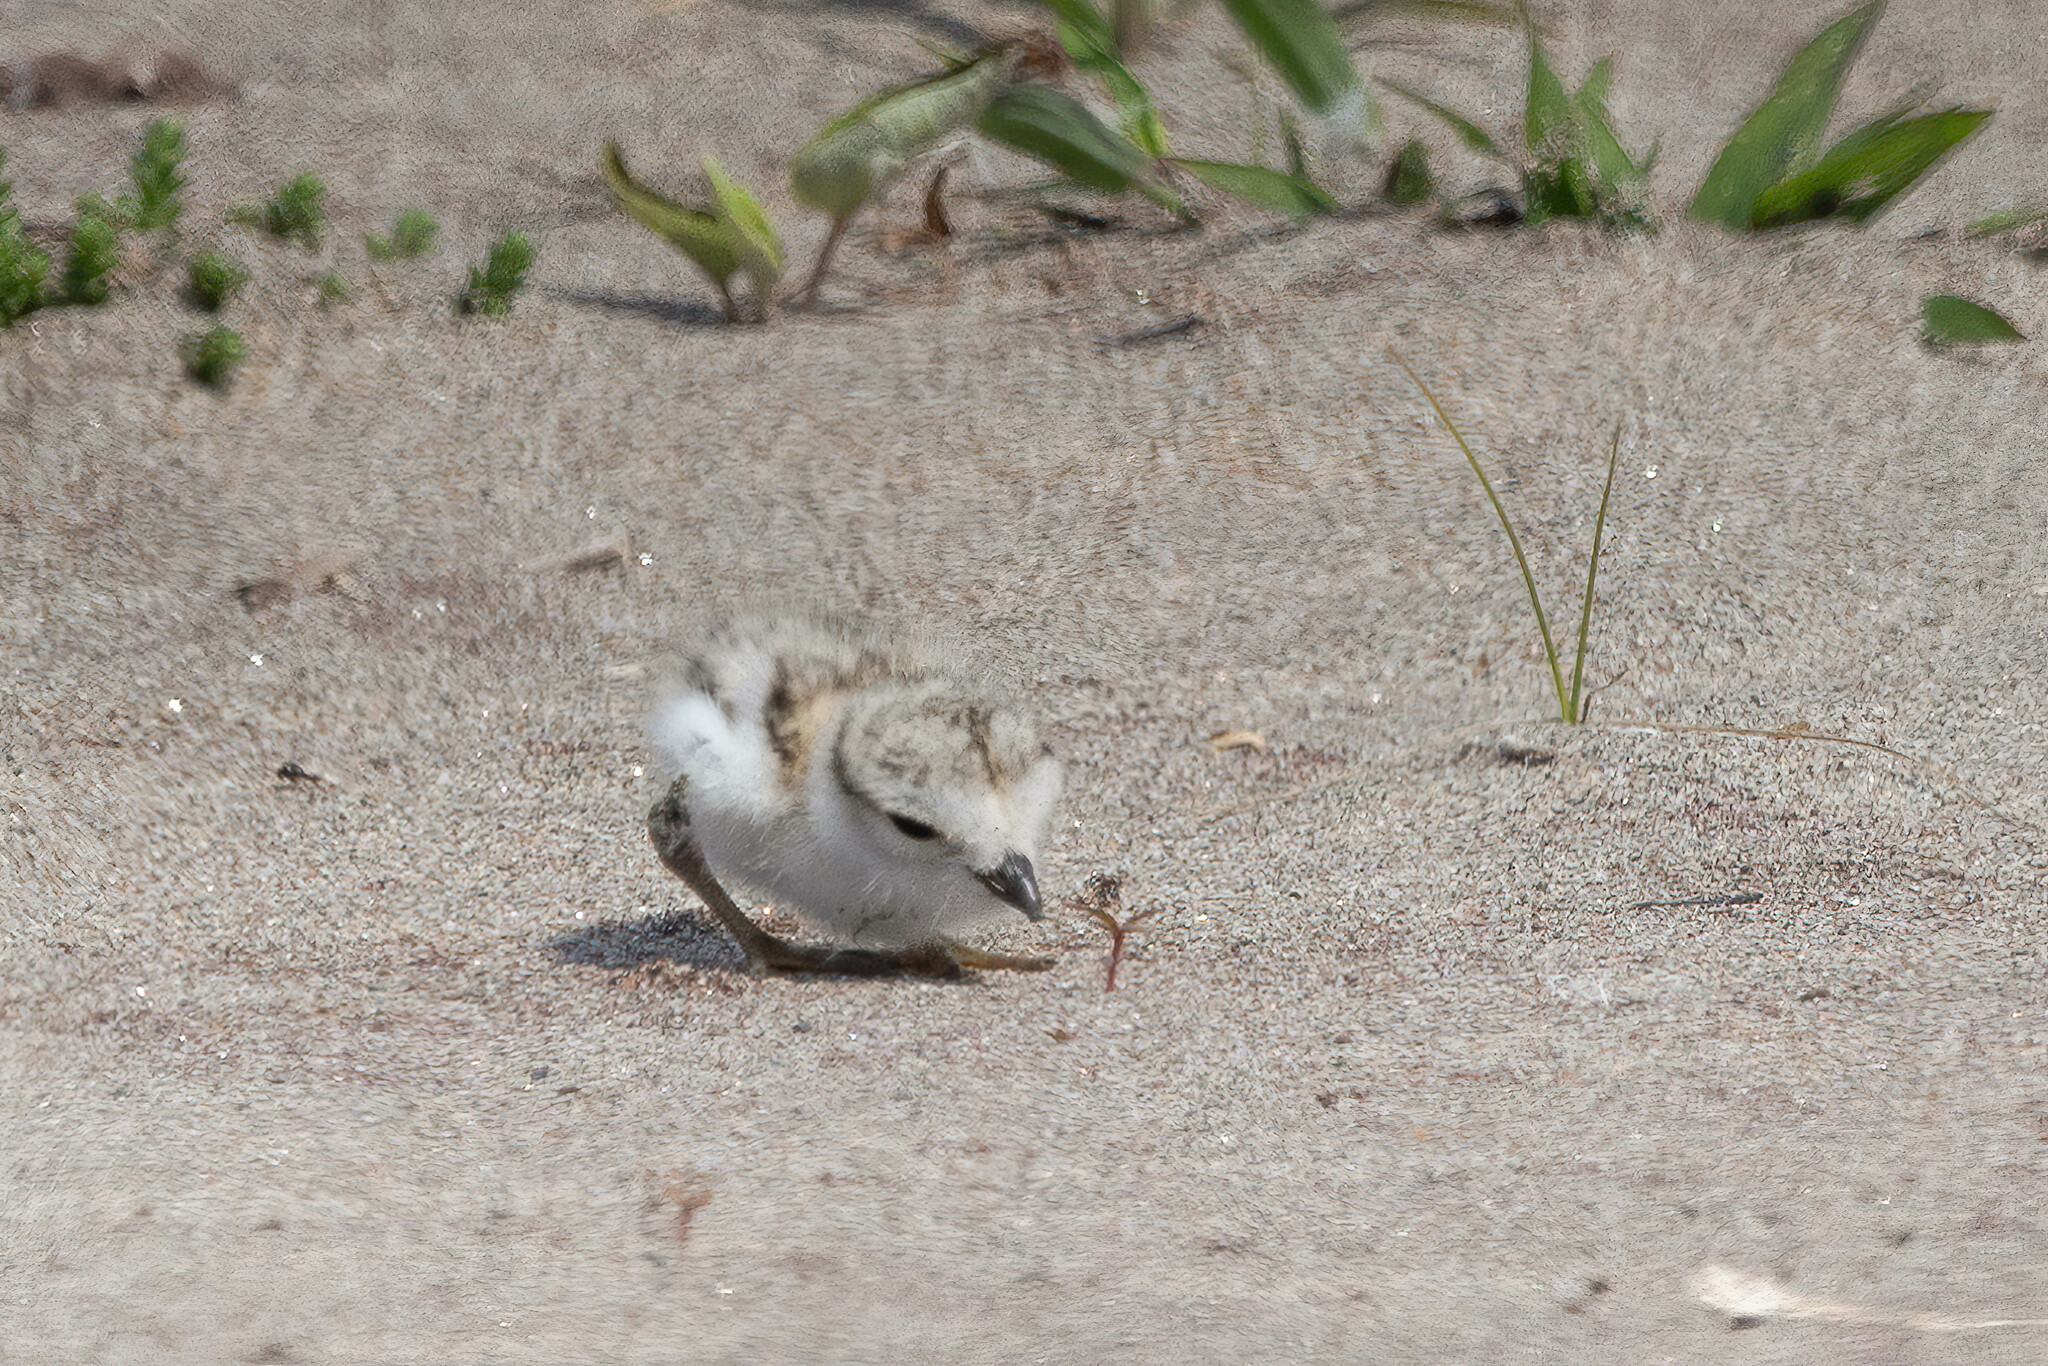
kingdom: Animalia
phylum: Chordata
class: Aves
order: Charadriiformes
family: Charadriidae
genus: Charadrius
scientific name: Charadrius melodus
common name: Piping plover
